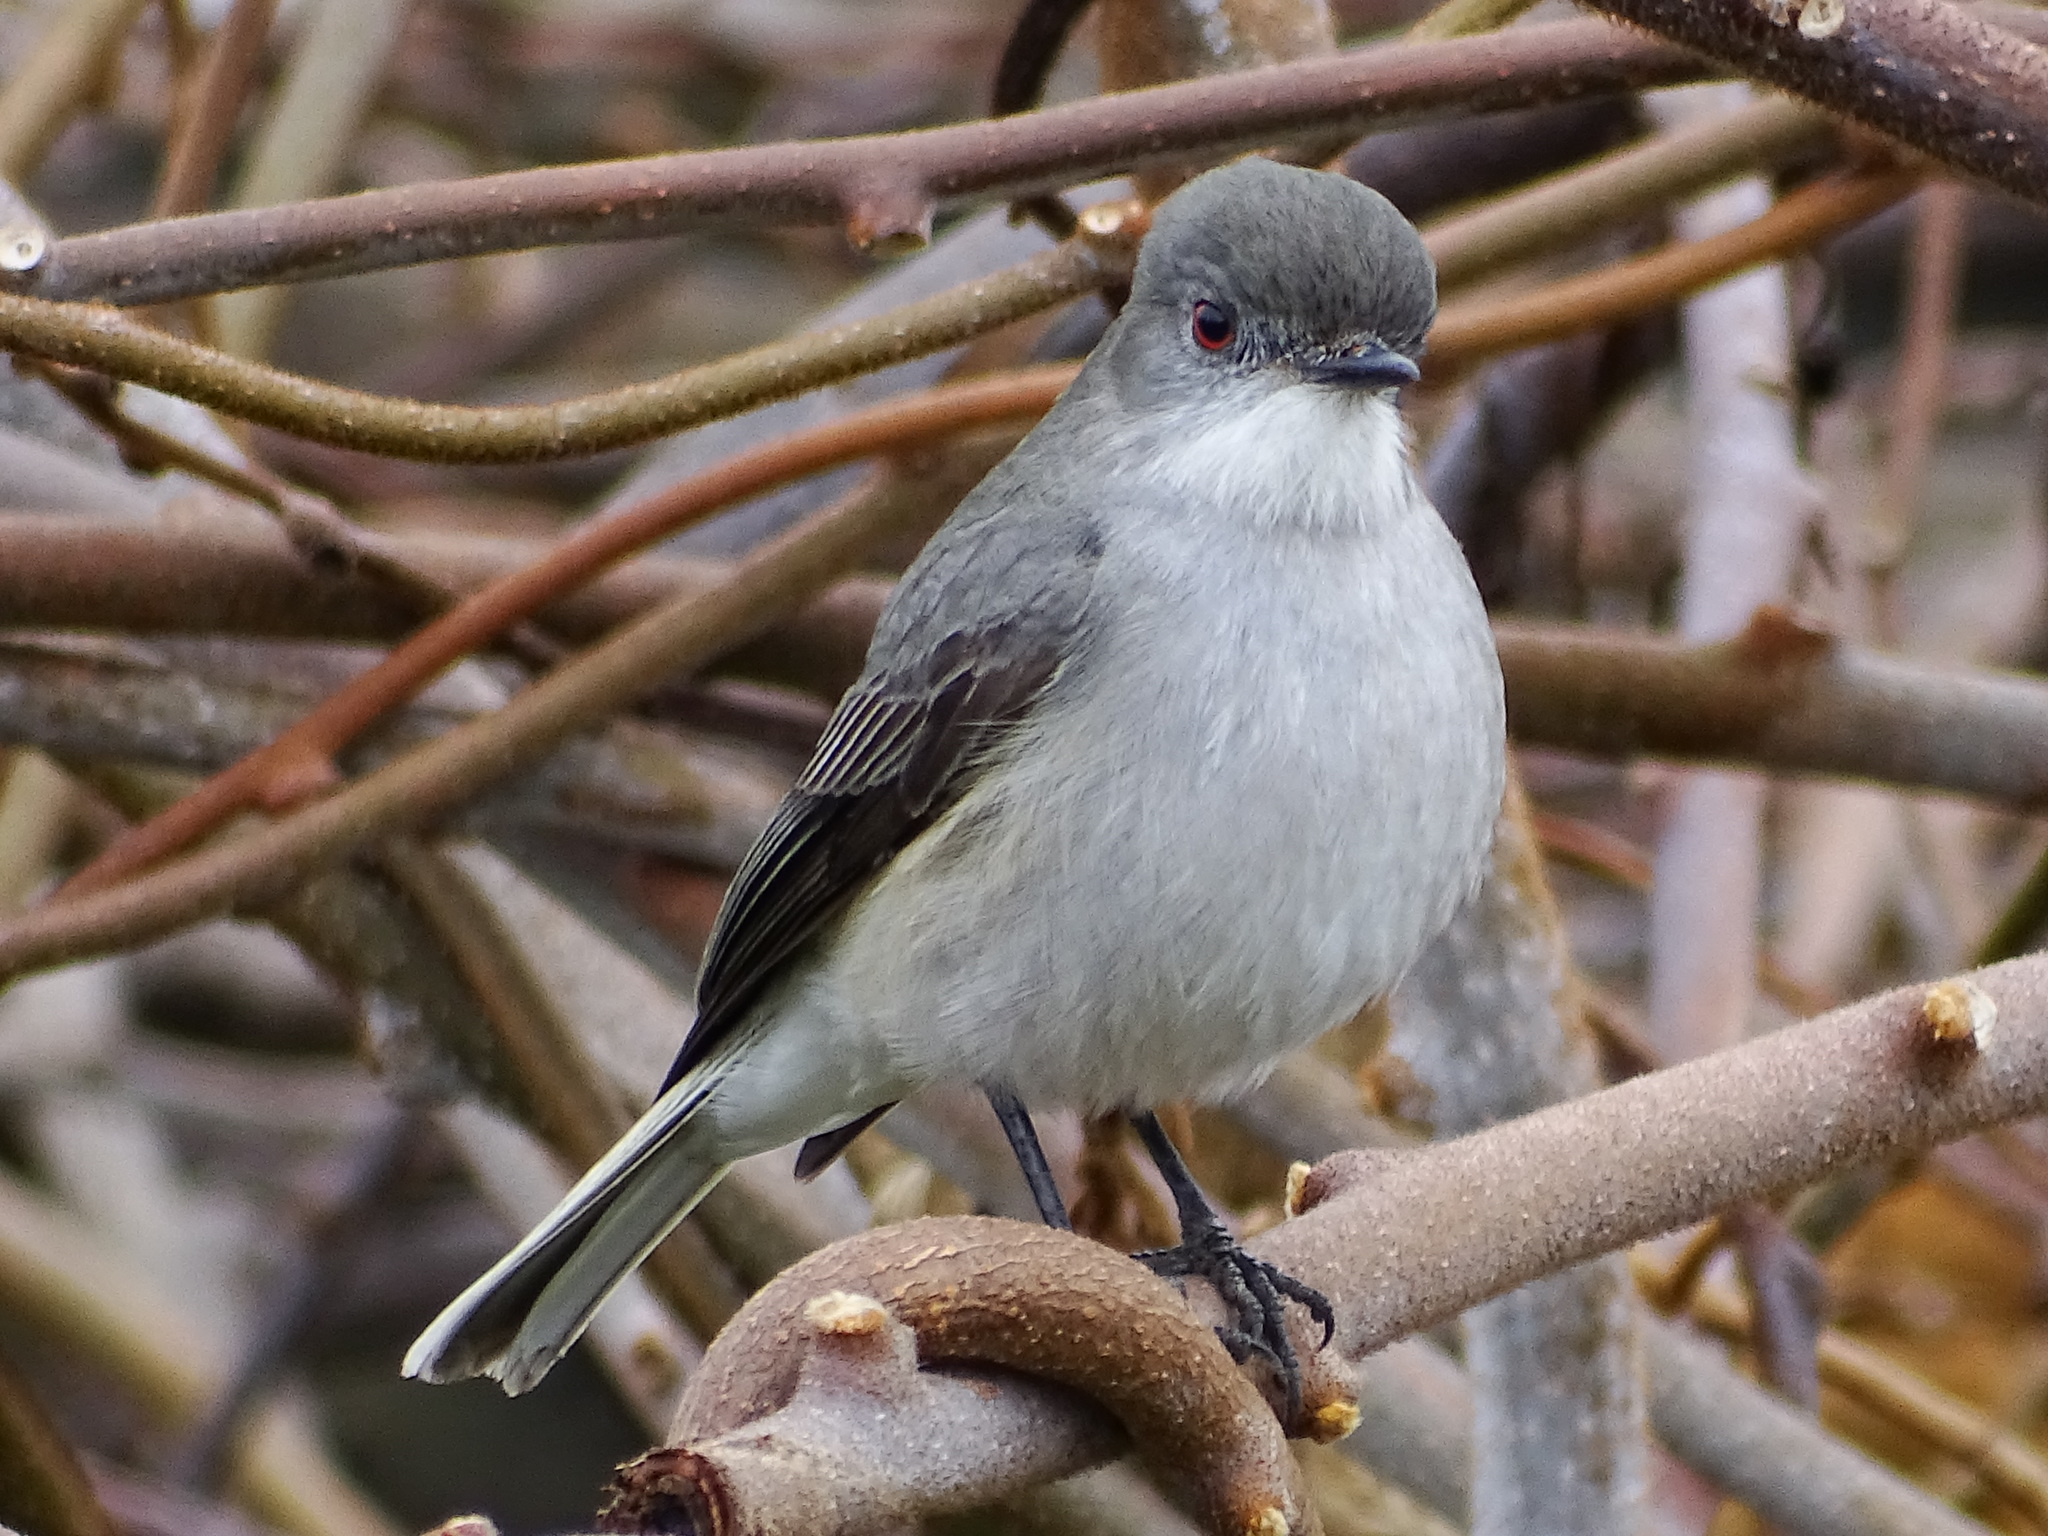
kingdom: Animalia
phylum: Chordata
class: Aves
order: Passeriformes
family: Tyrannidae
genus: Xolmis
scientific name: Xolmis pyrope
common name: Fire-eyed diucon
